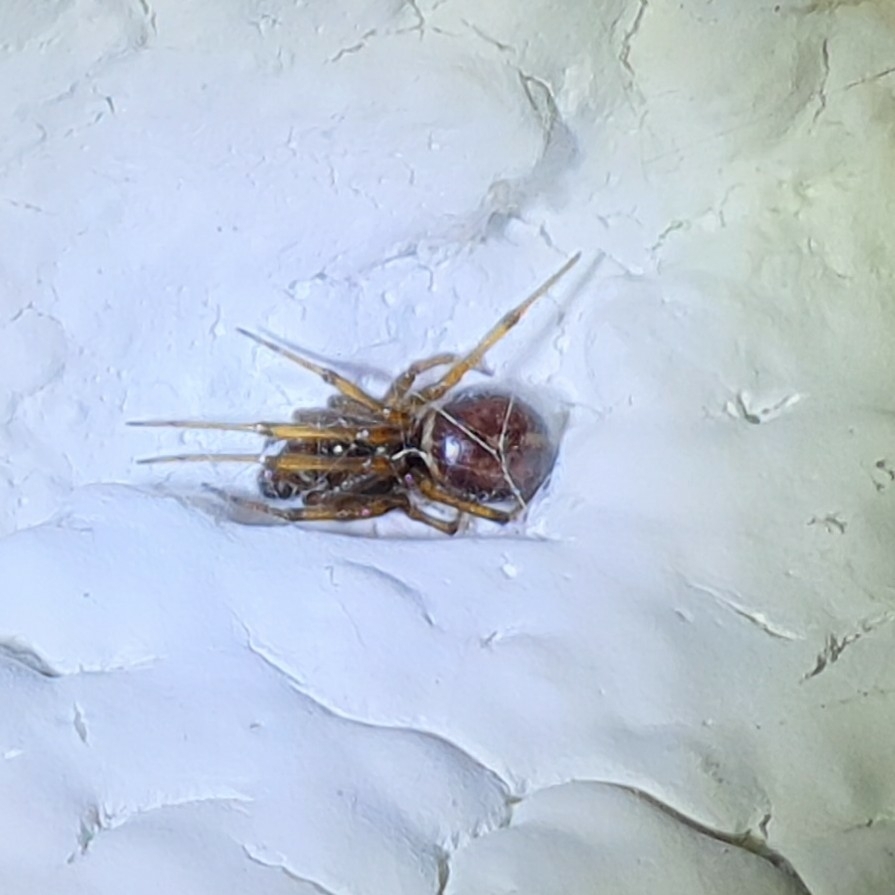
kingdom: Animalia
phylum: Arthropoda
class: Arachnida
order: Araneae
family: Theridiidae
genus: Steatoda
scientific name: Steatoda bipunctata
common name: False widow
